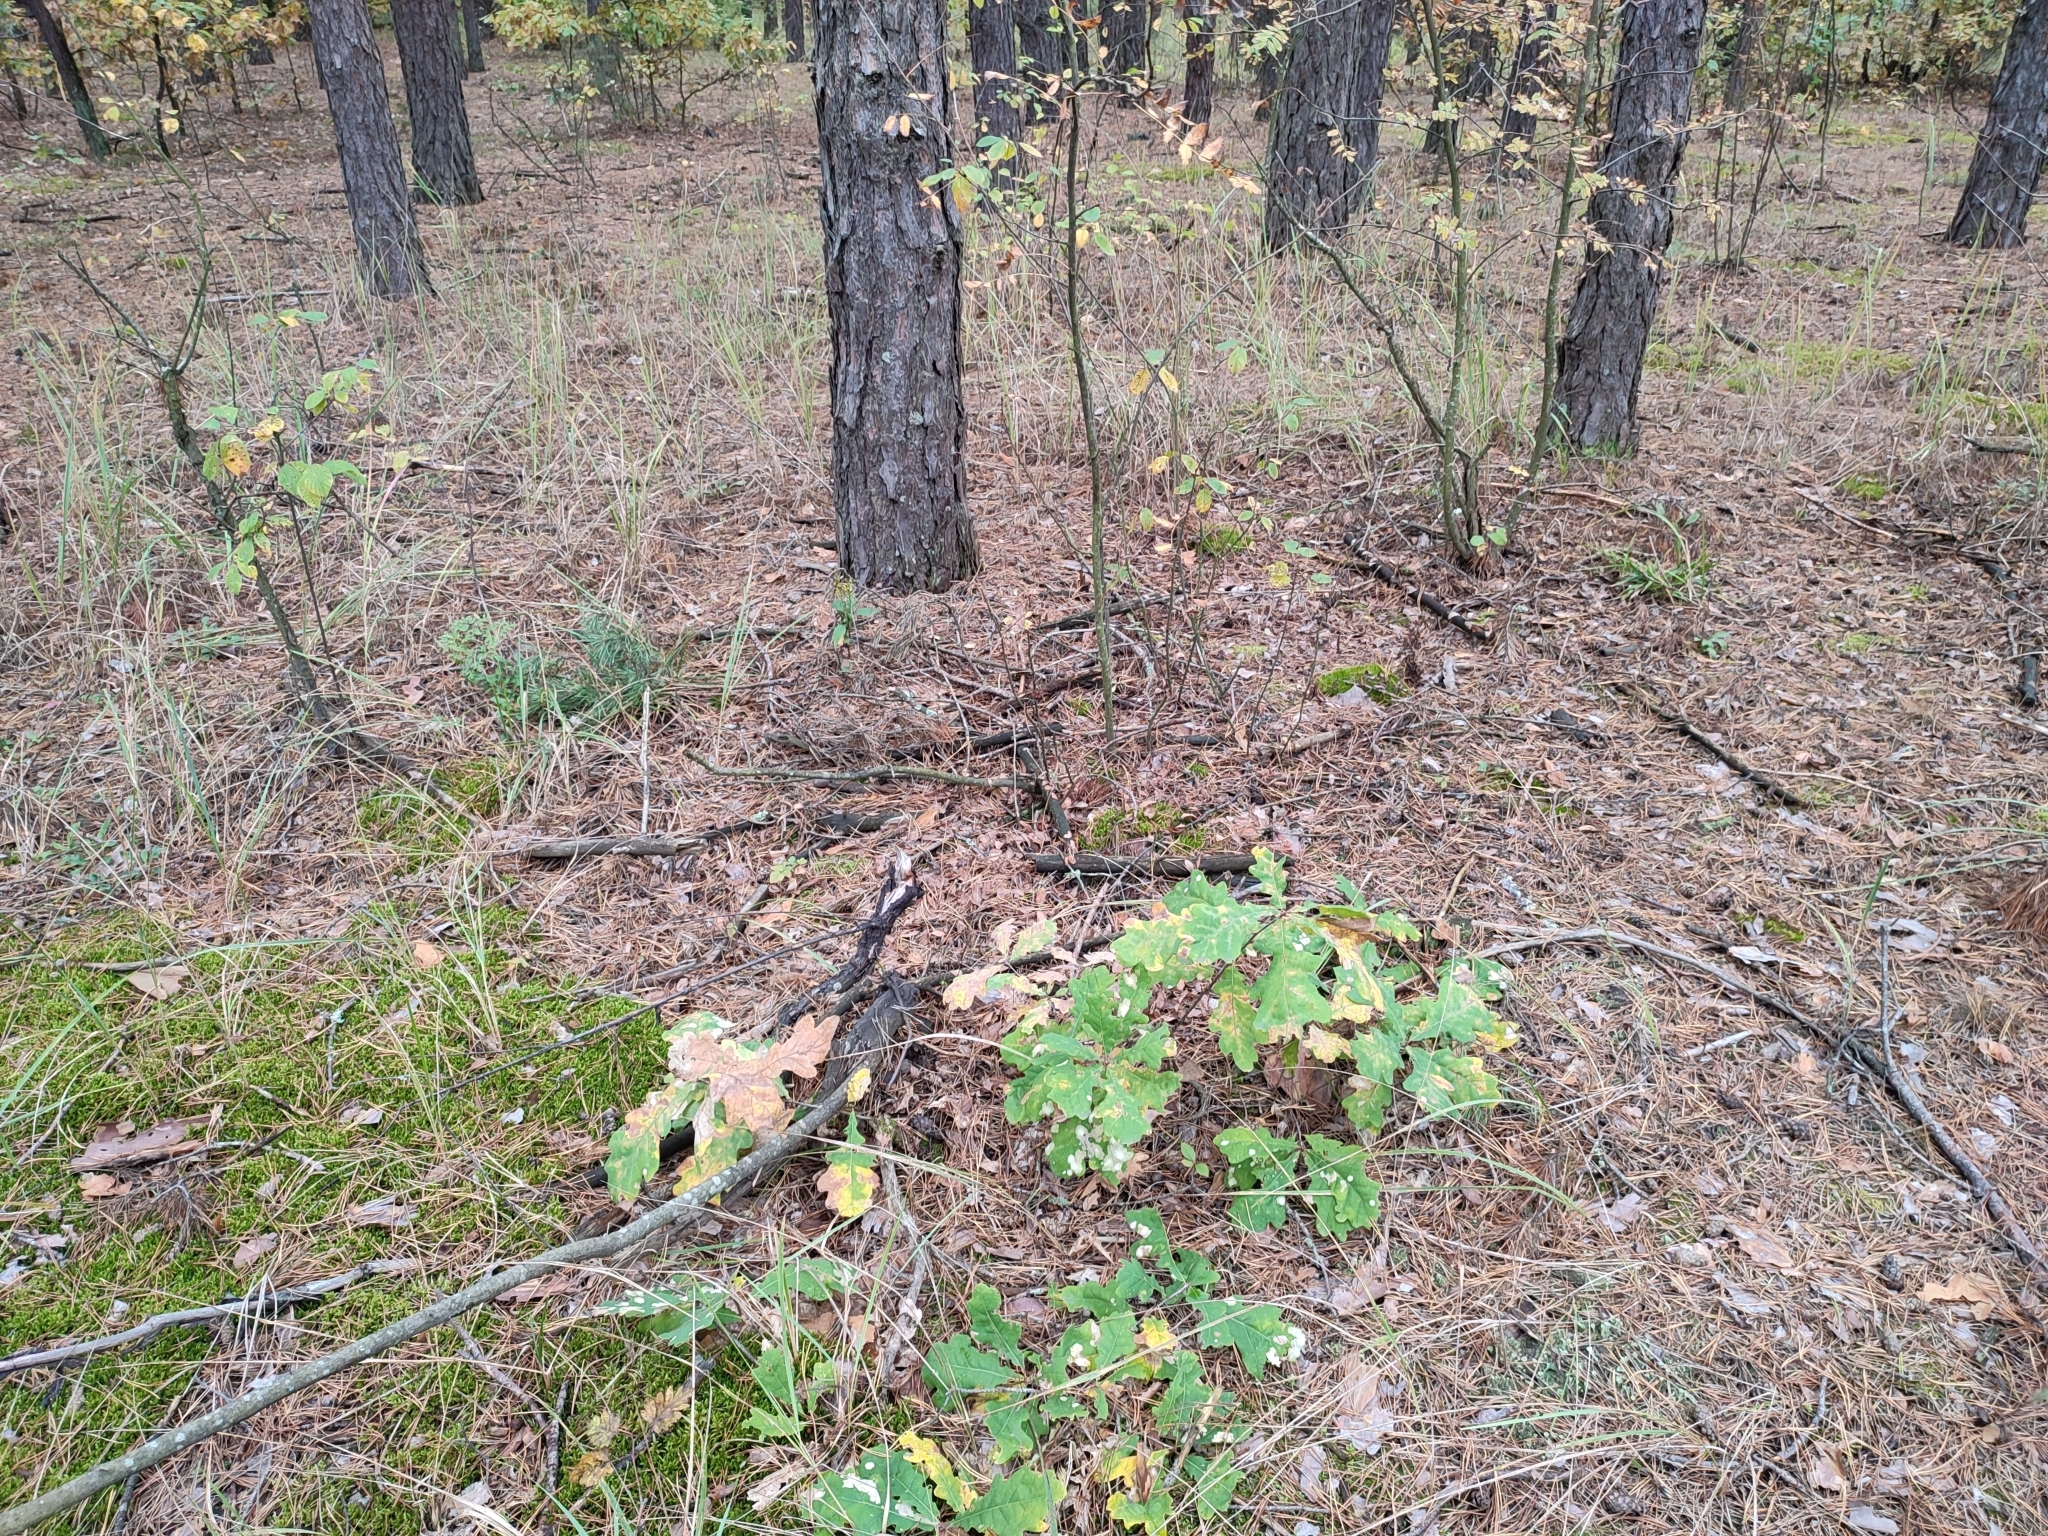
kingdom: Plantae
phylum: Tracheophyta
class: Magnoliopsida
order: Fagales
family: Fagaceae
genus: Quercus
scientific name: Quercus robur
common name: Pedunculate oak
